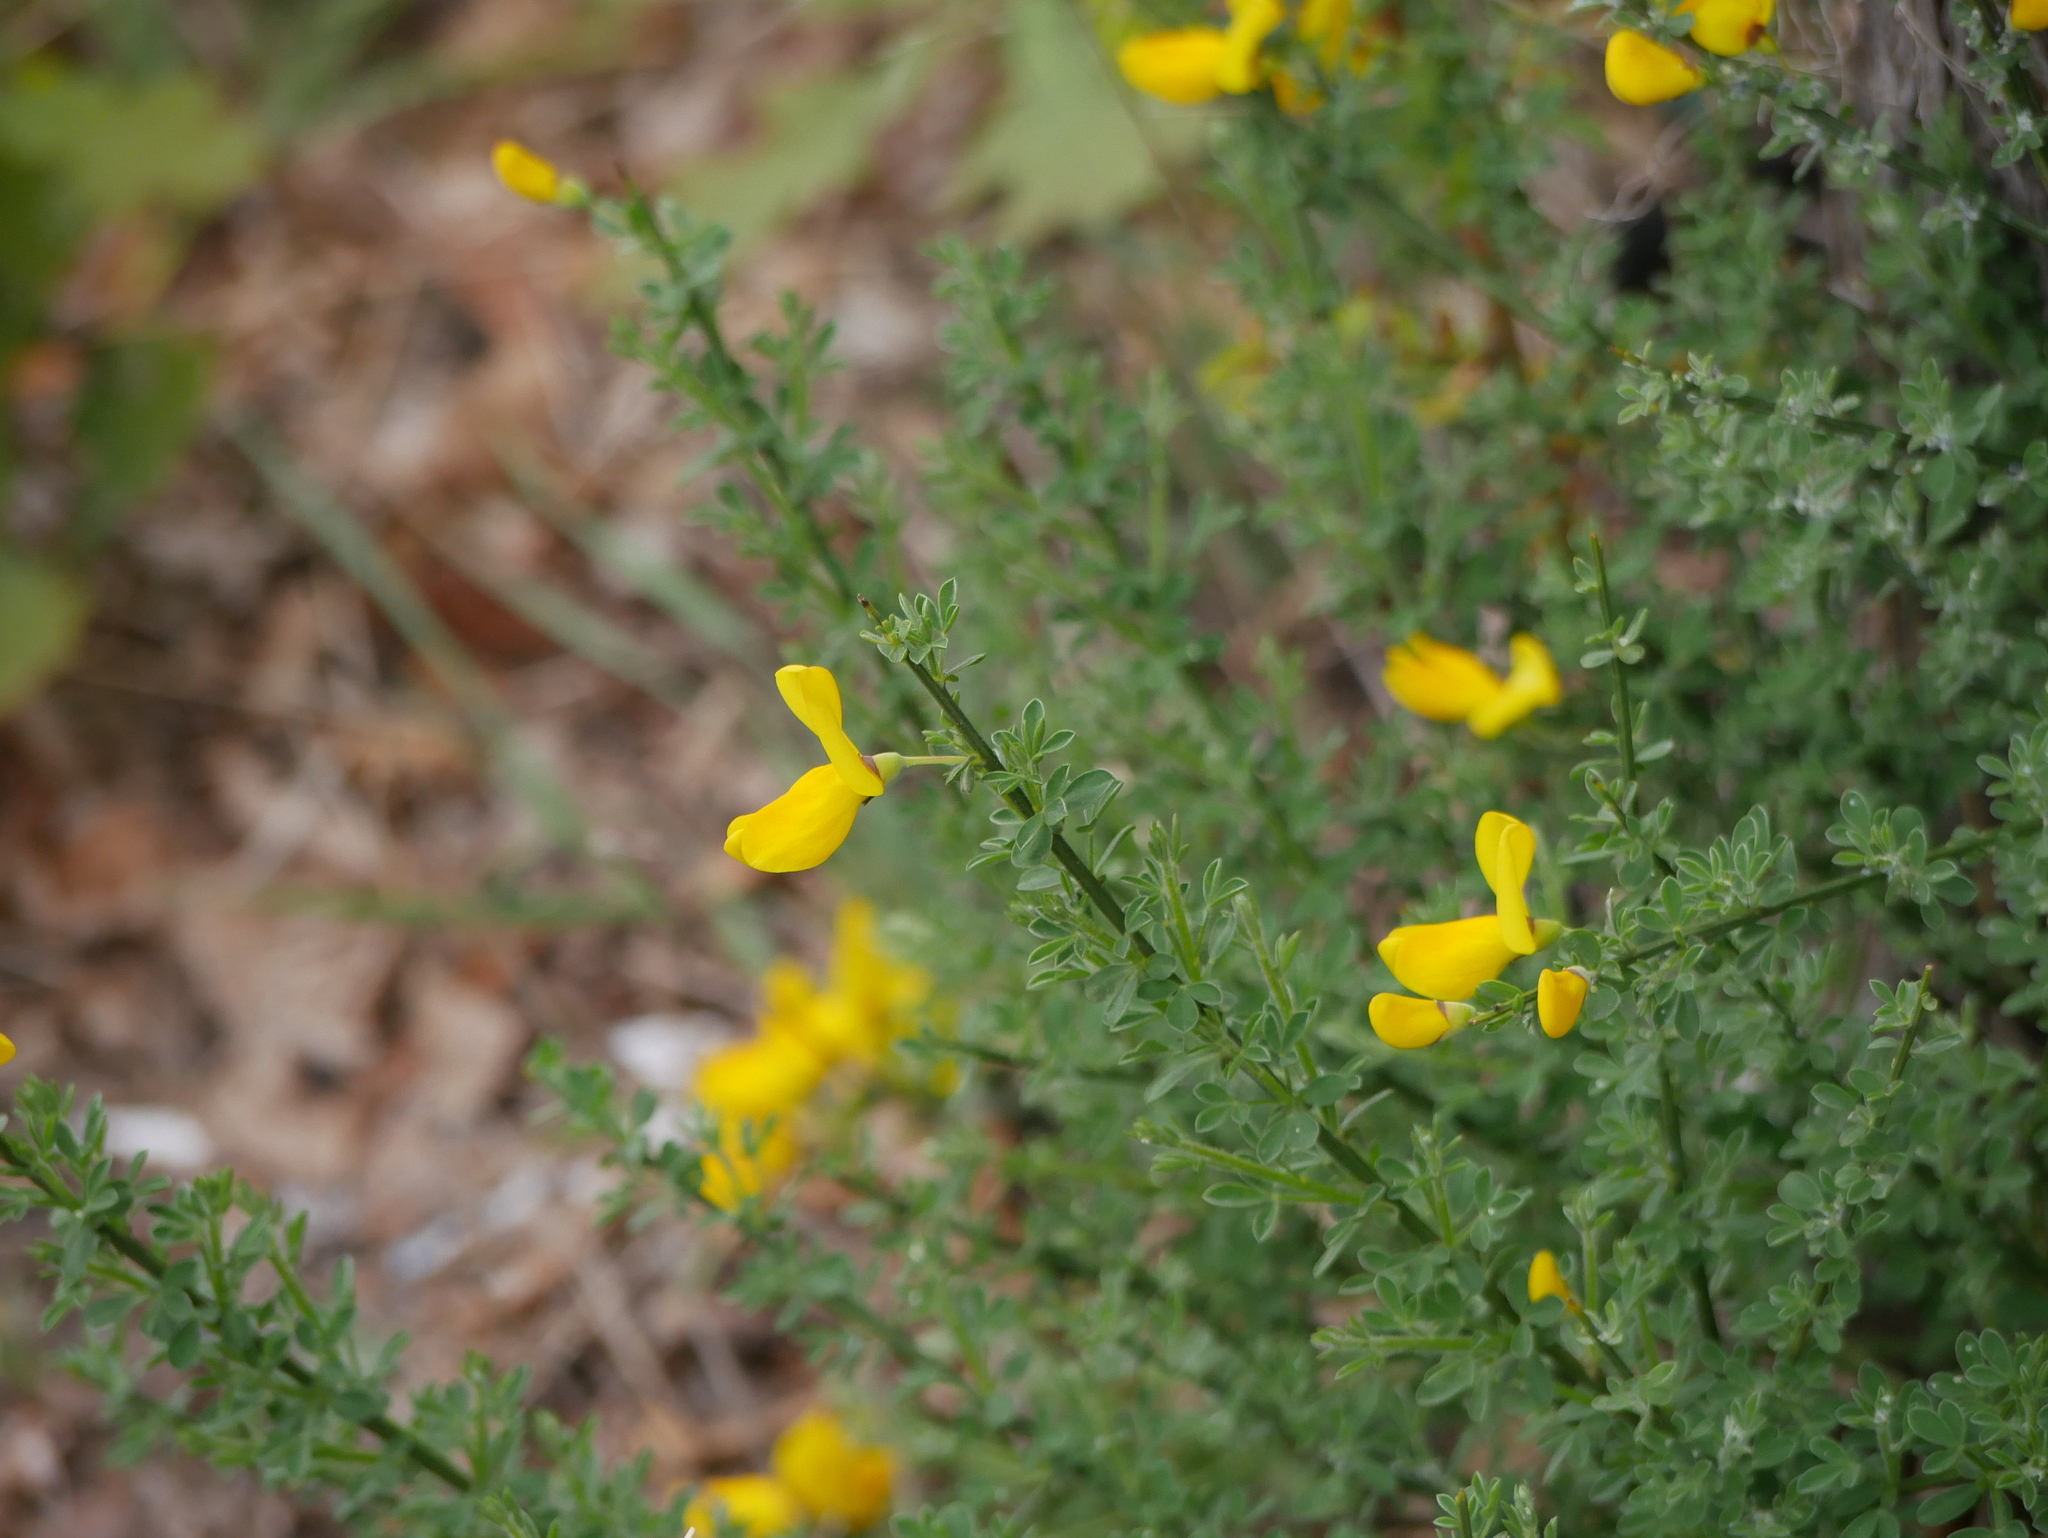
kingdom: Plantae
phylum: Tracheophyta
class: Magnoliopsida
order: Fabales
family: Fabaceae
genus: Cytisus
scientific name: Cytisus scoparius
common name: Scotch broom
